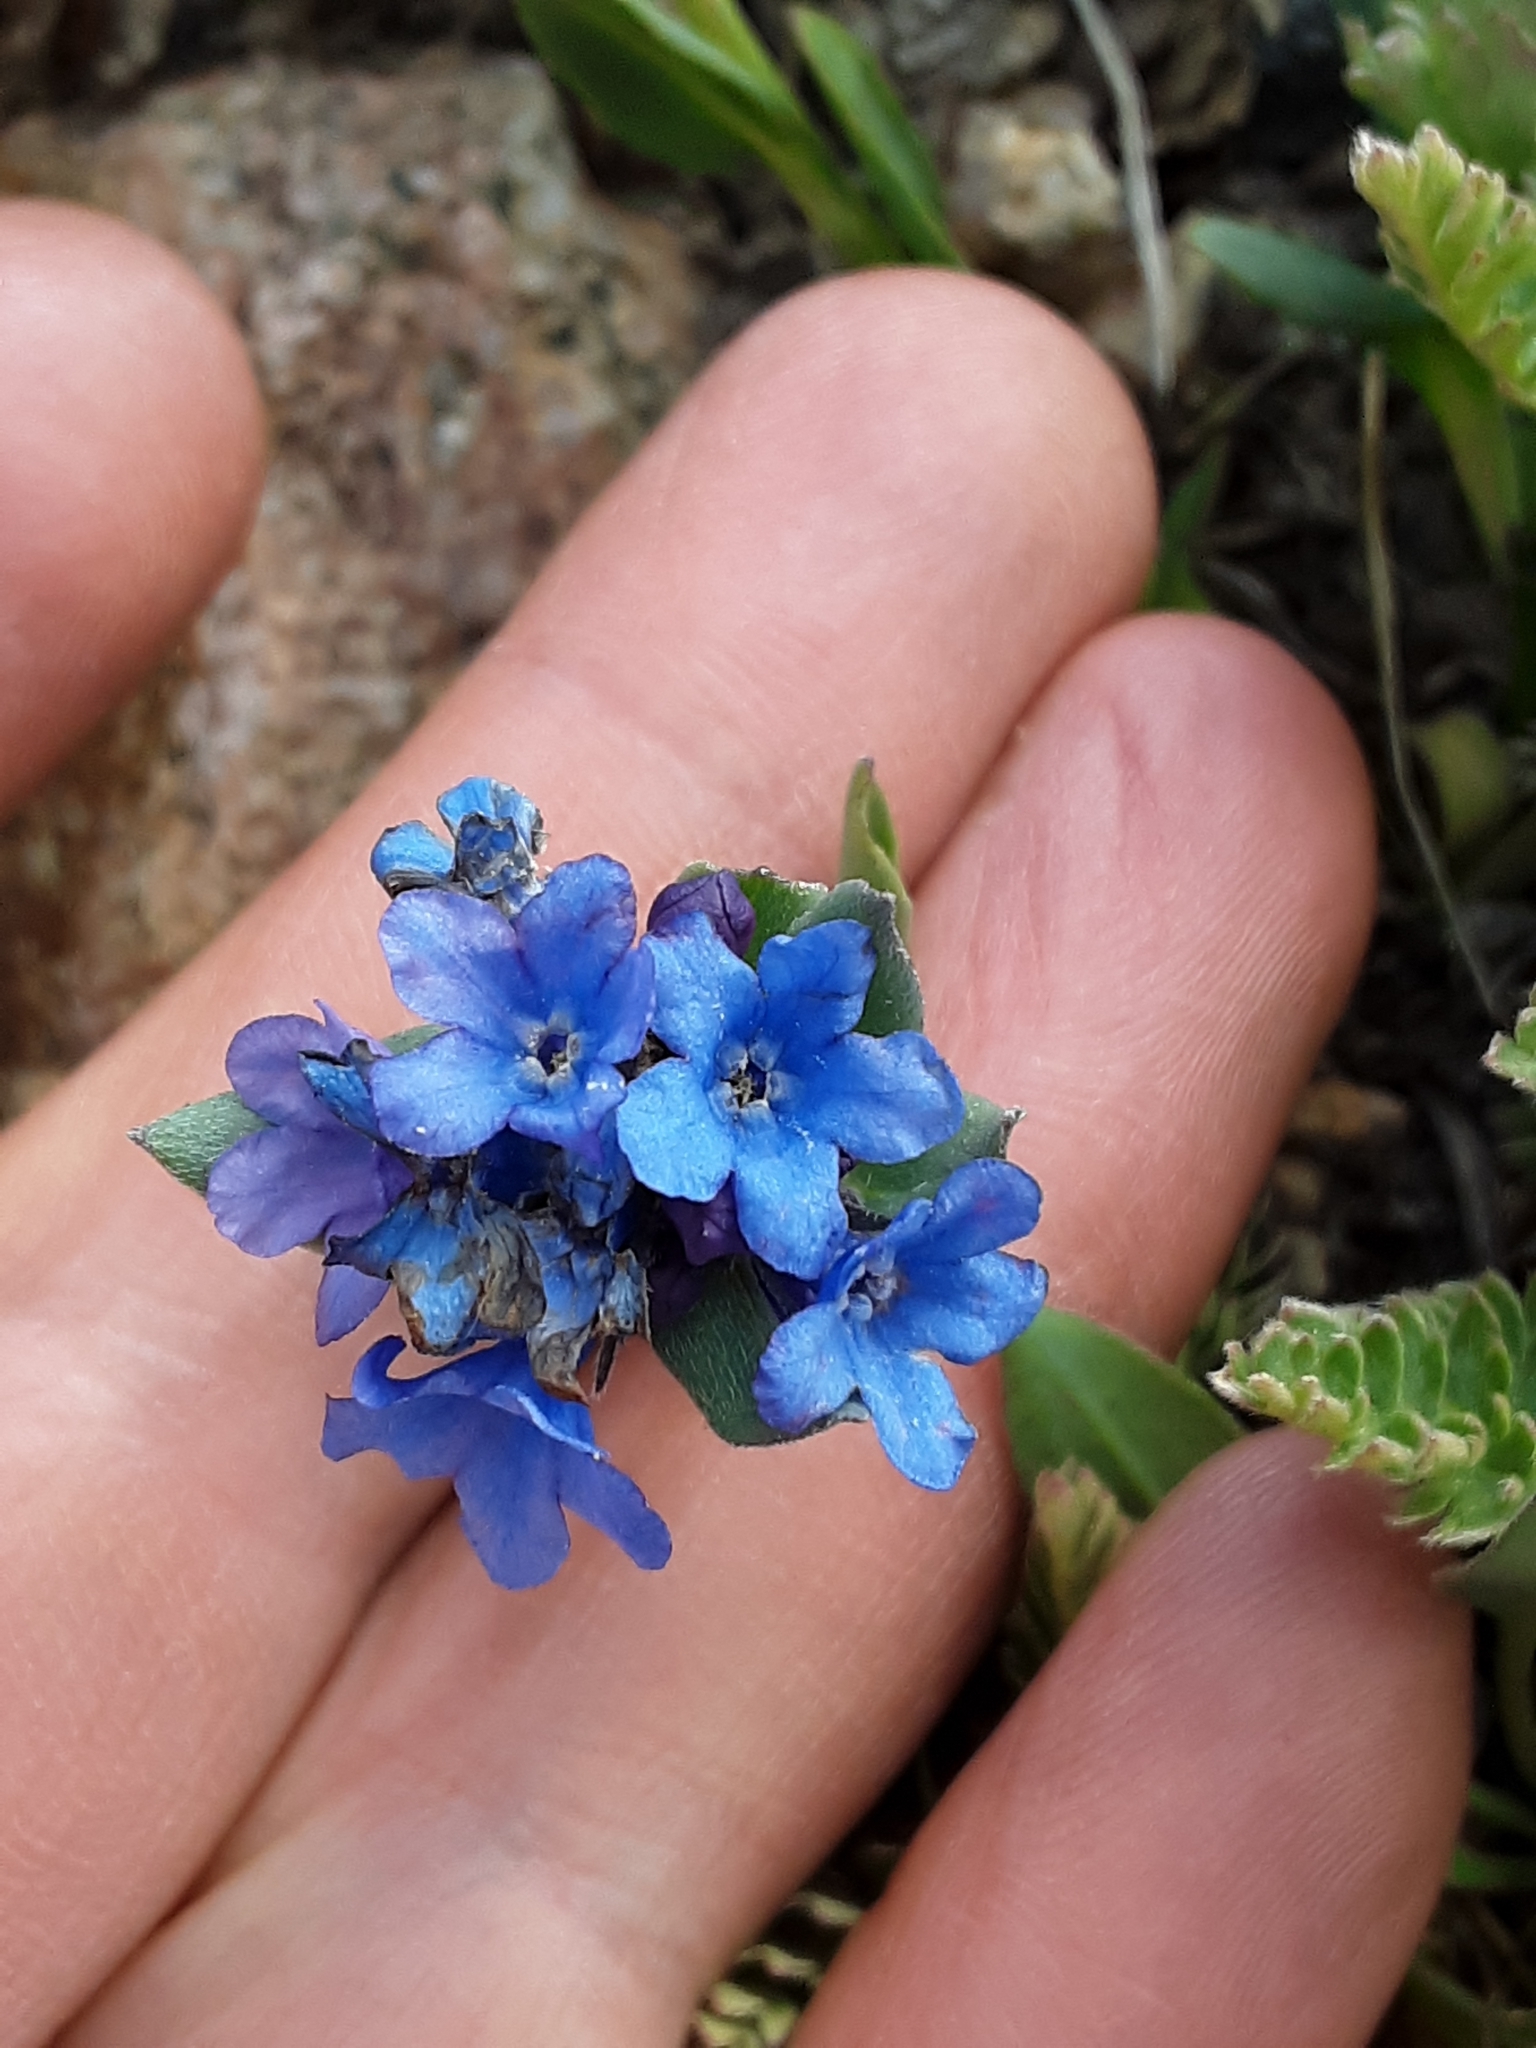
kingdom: Plantae
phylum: Tracheophyta
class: Magnoliopsida
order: Boraginales
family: Boraginaceae
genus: Mertensia
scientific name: Mertensia tweedyi
